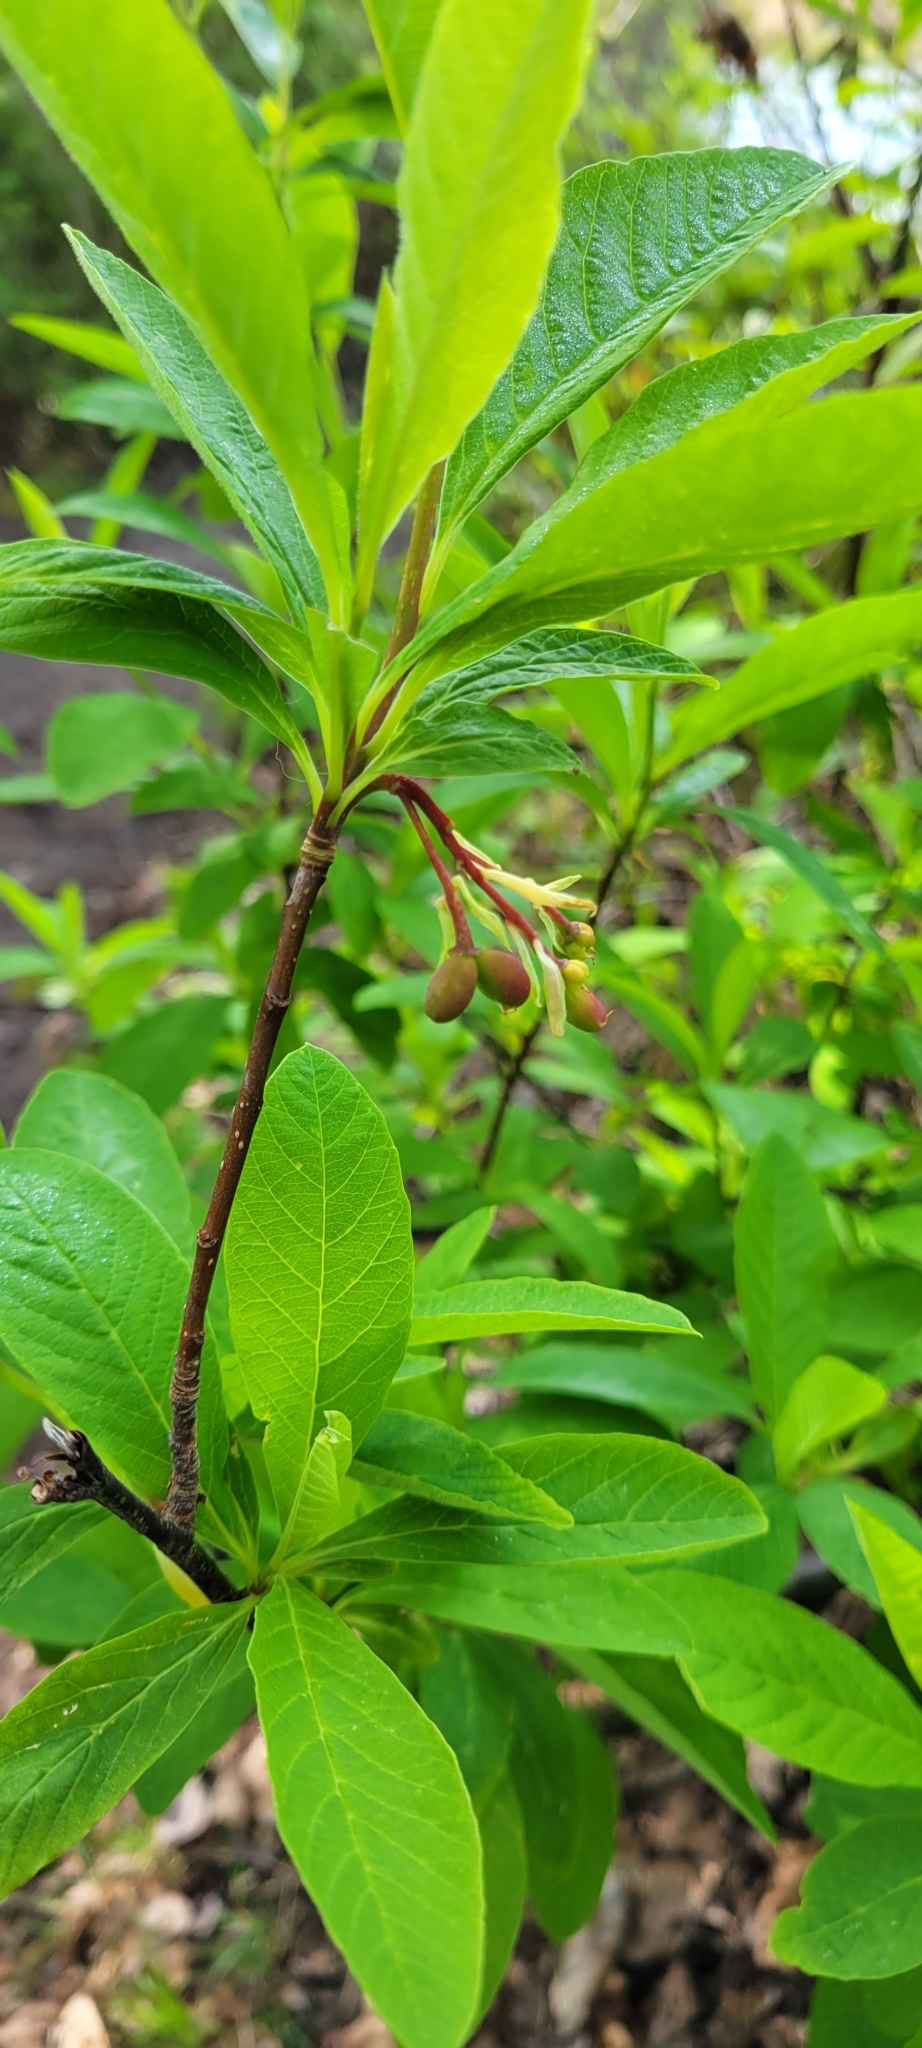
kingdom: Plantae
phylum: Tracheophyta
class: Magnoliopsida
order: Rosales
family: Rosaceae
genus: Oemleria
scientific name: Oemleria cerasiformis
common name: Osoberry
